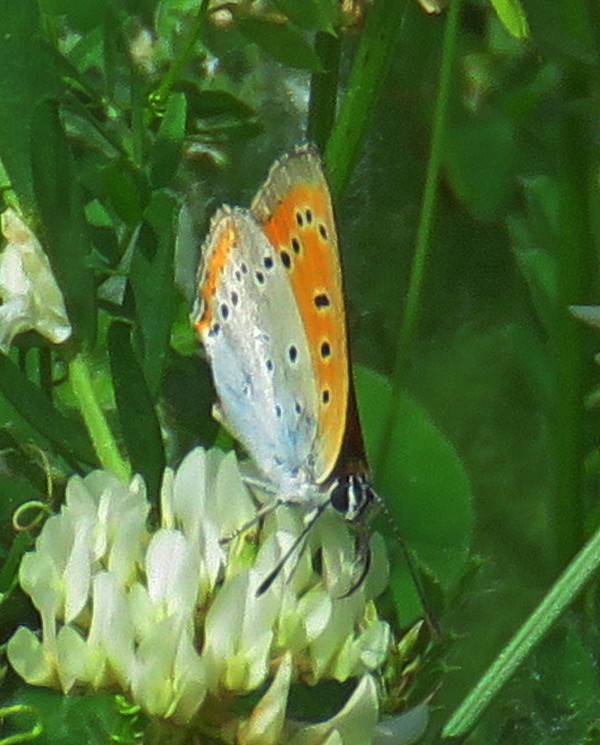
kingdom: Animalia
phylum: Arthropoda
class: Insecta
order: Lepidoptera
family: Lycaenidae
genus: Lycaena
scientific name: Lycaena dispar
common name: Large copper
